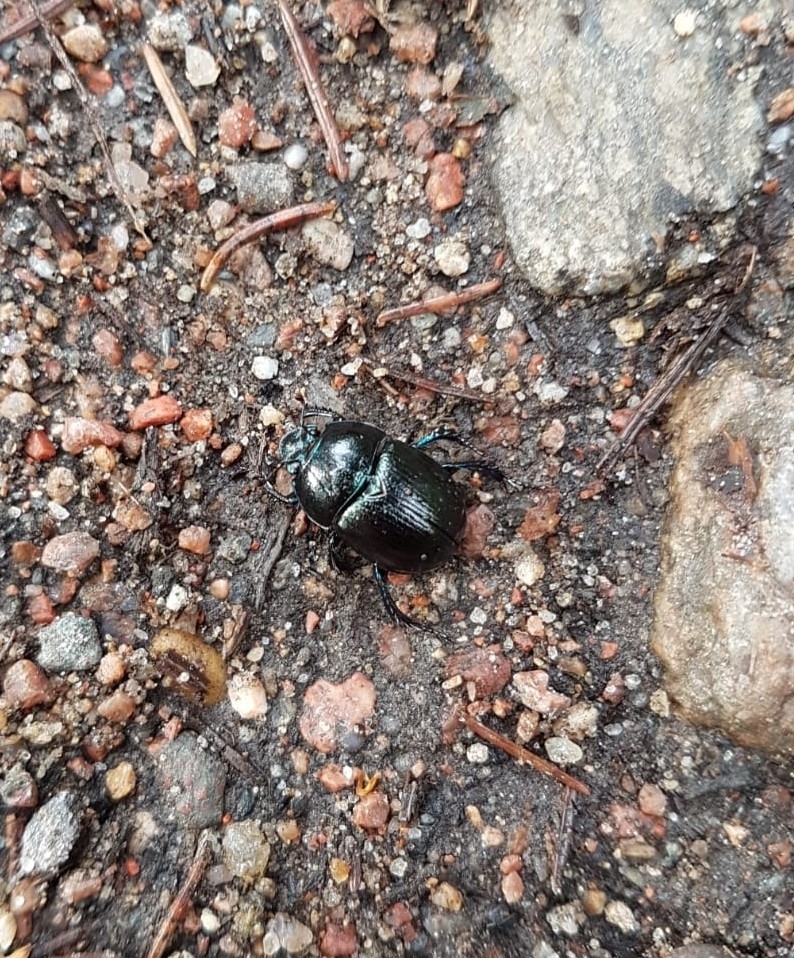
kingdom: Animalia
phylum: Arthropoda
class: Insecta
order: Coleoptera
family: Geotrupidae
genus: Anoplotrupes
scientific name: Anoplotrupes stercorosus
